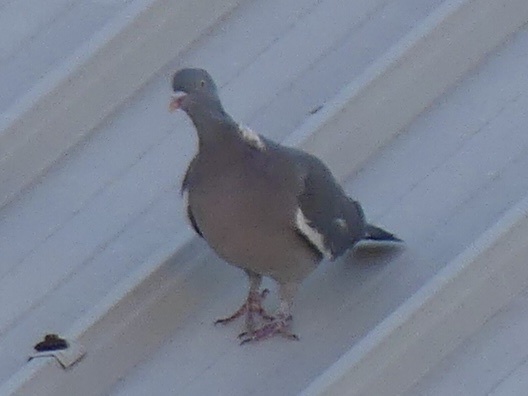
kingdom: Animalia
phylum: Chordata
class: Aves
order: Columbiformes
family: Columbidae
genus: Columba
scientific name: Columba palumbus
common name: Common wood pigeon
